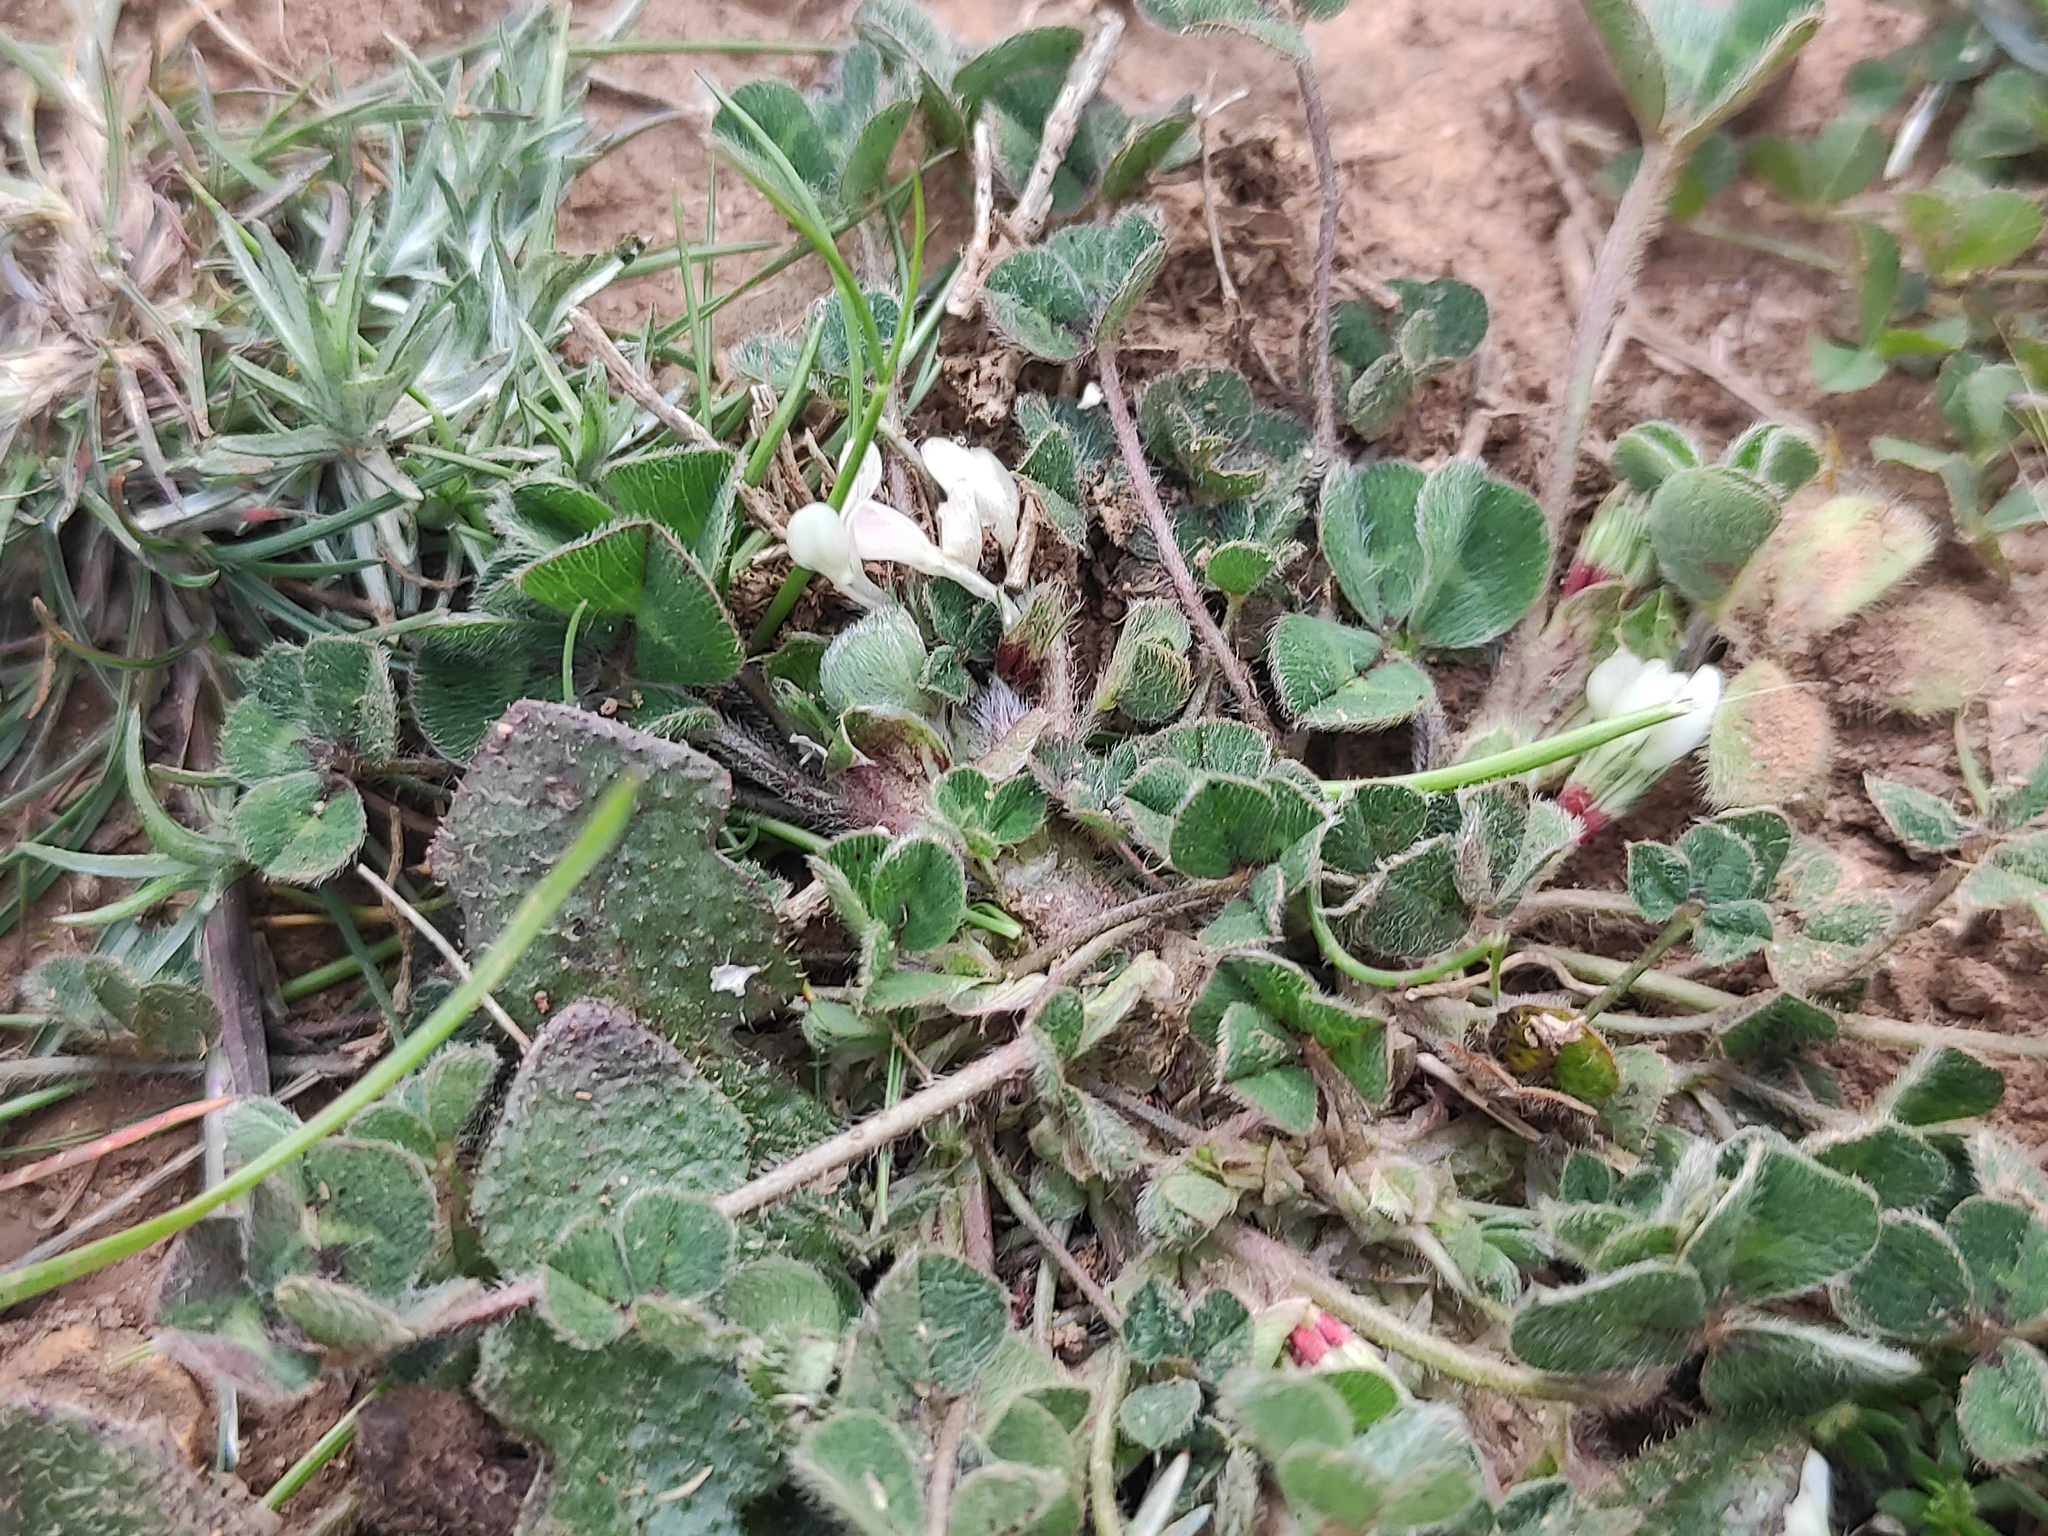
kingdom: Plantae
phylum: Tracheophyta
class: Magnoliopsida
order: Fabales
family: Fabaceae
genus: Trifolium
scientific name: Trifolium subterraneum
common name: Subterranean clover
